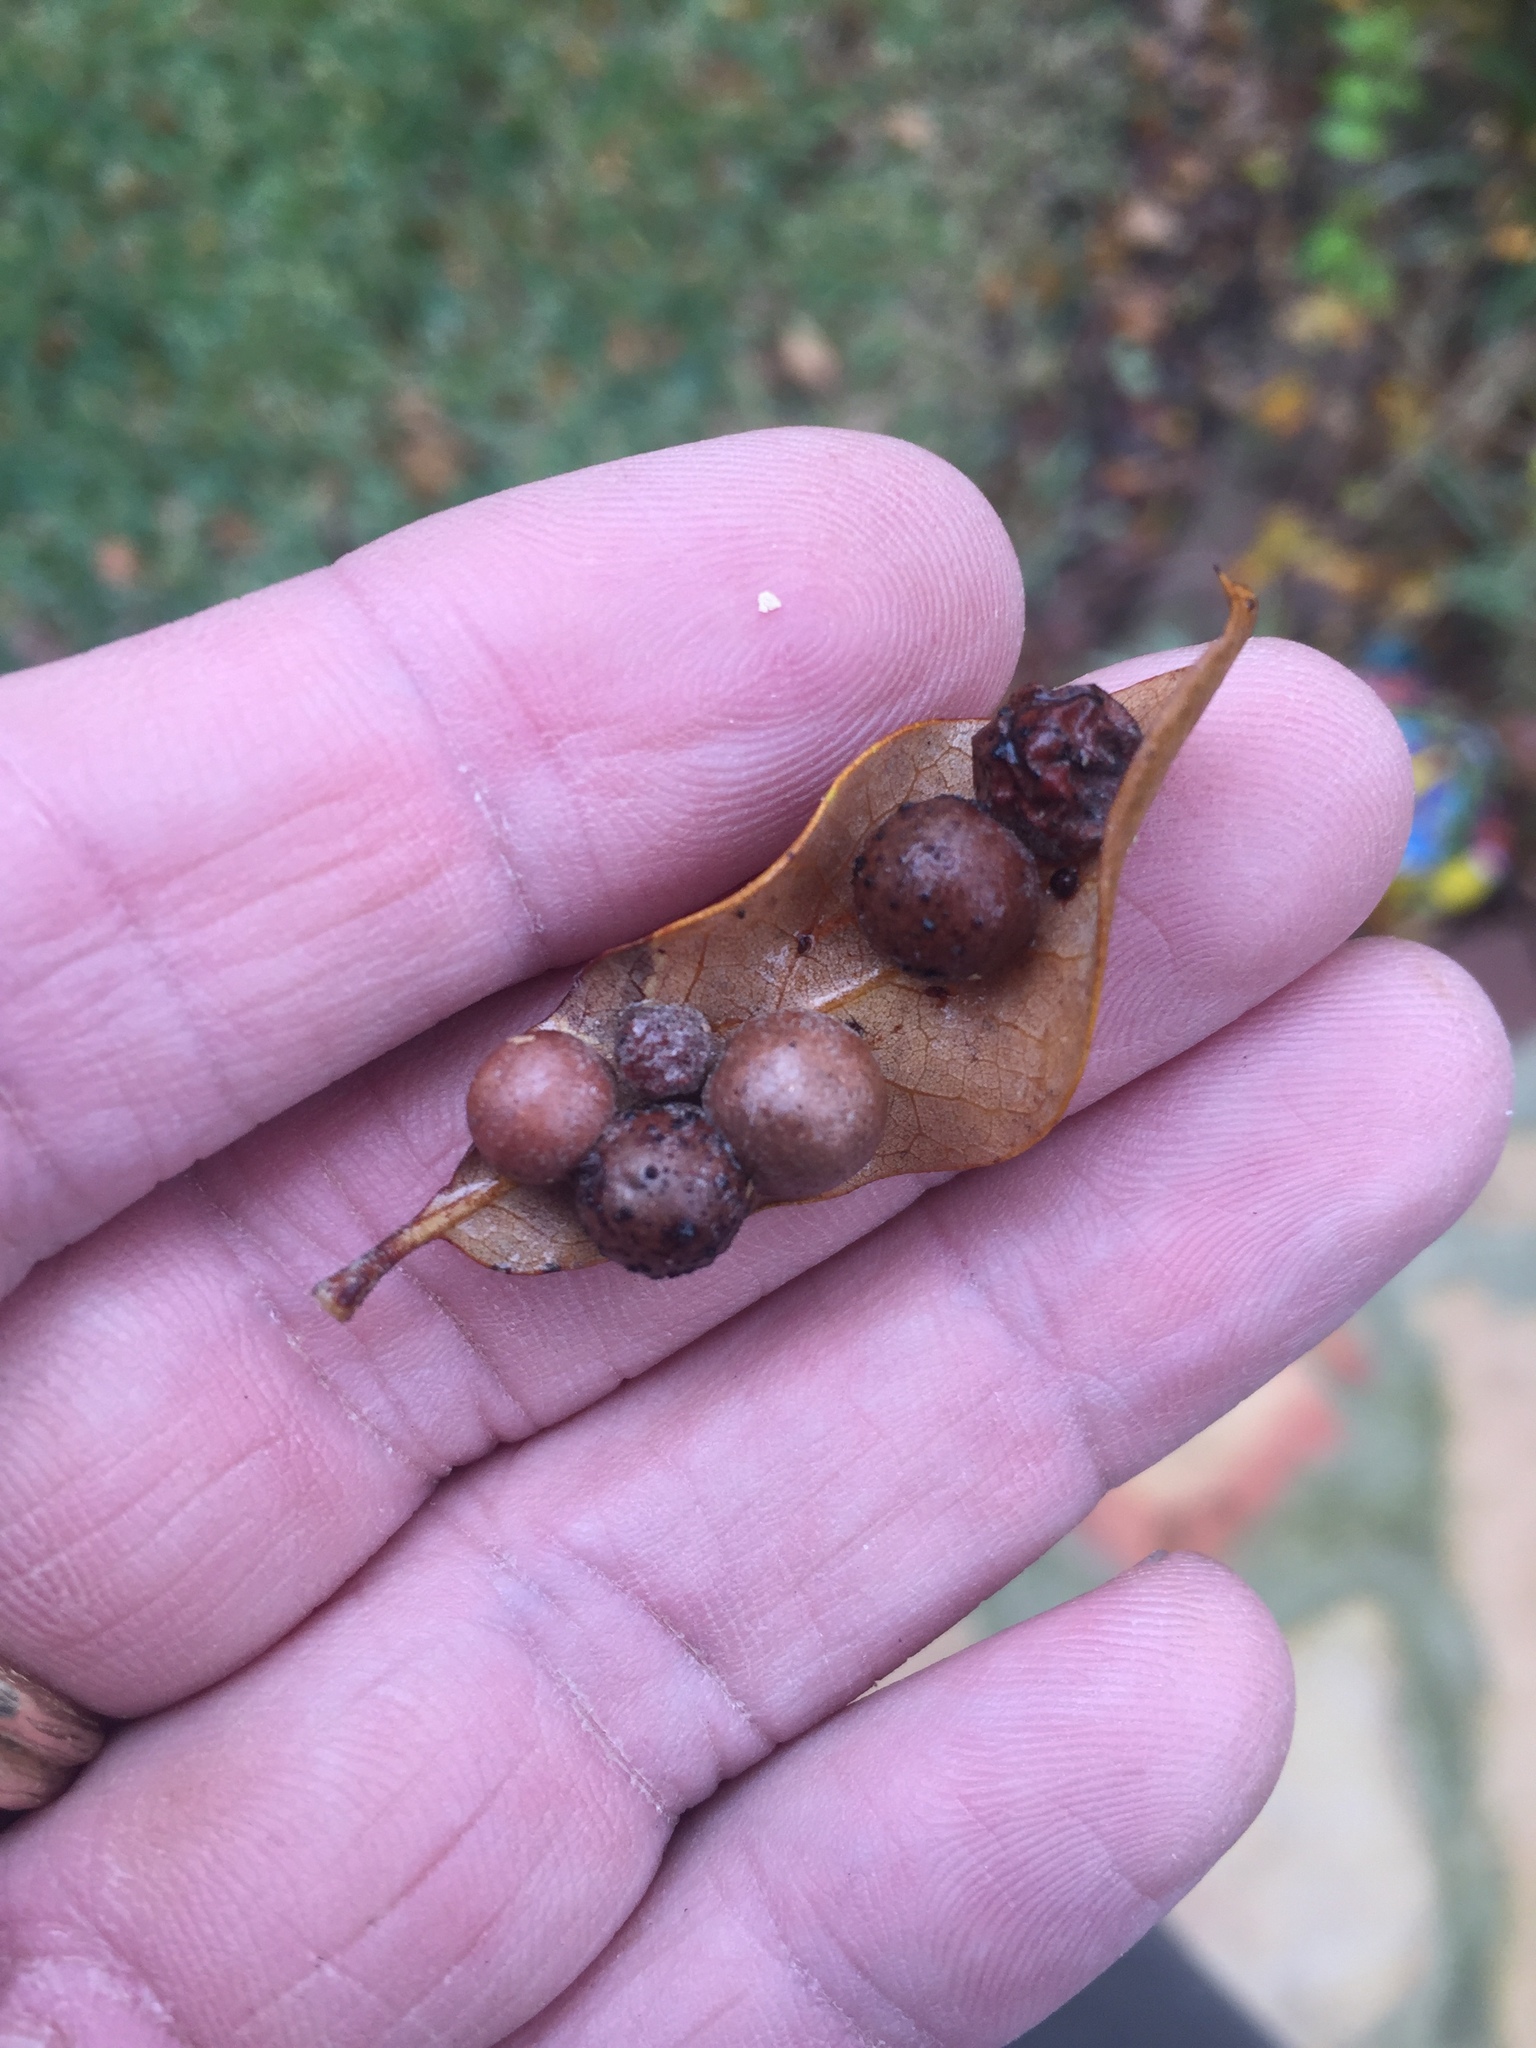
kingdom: Animalia
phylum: Arthropoda
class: Insecta
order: Hymenoptera
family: Cynipidae
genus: Belonocnema
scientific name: Belonocnema kinseyi
